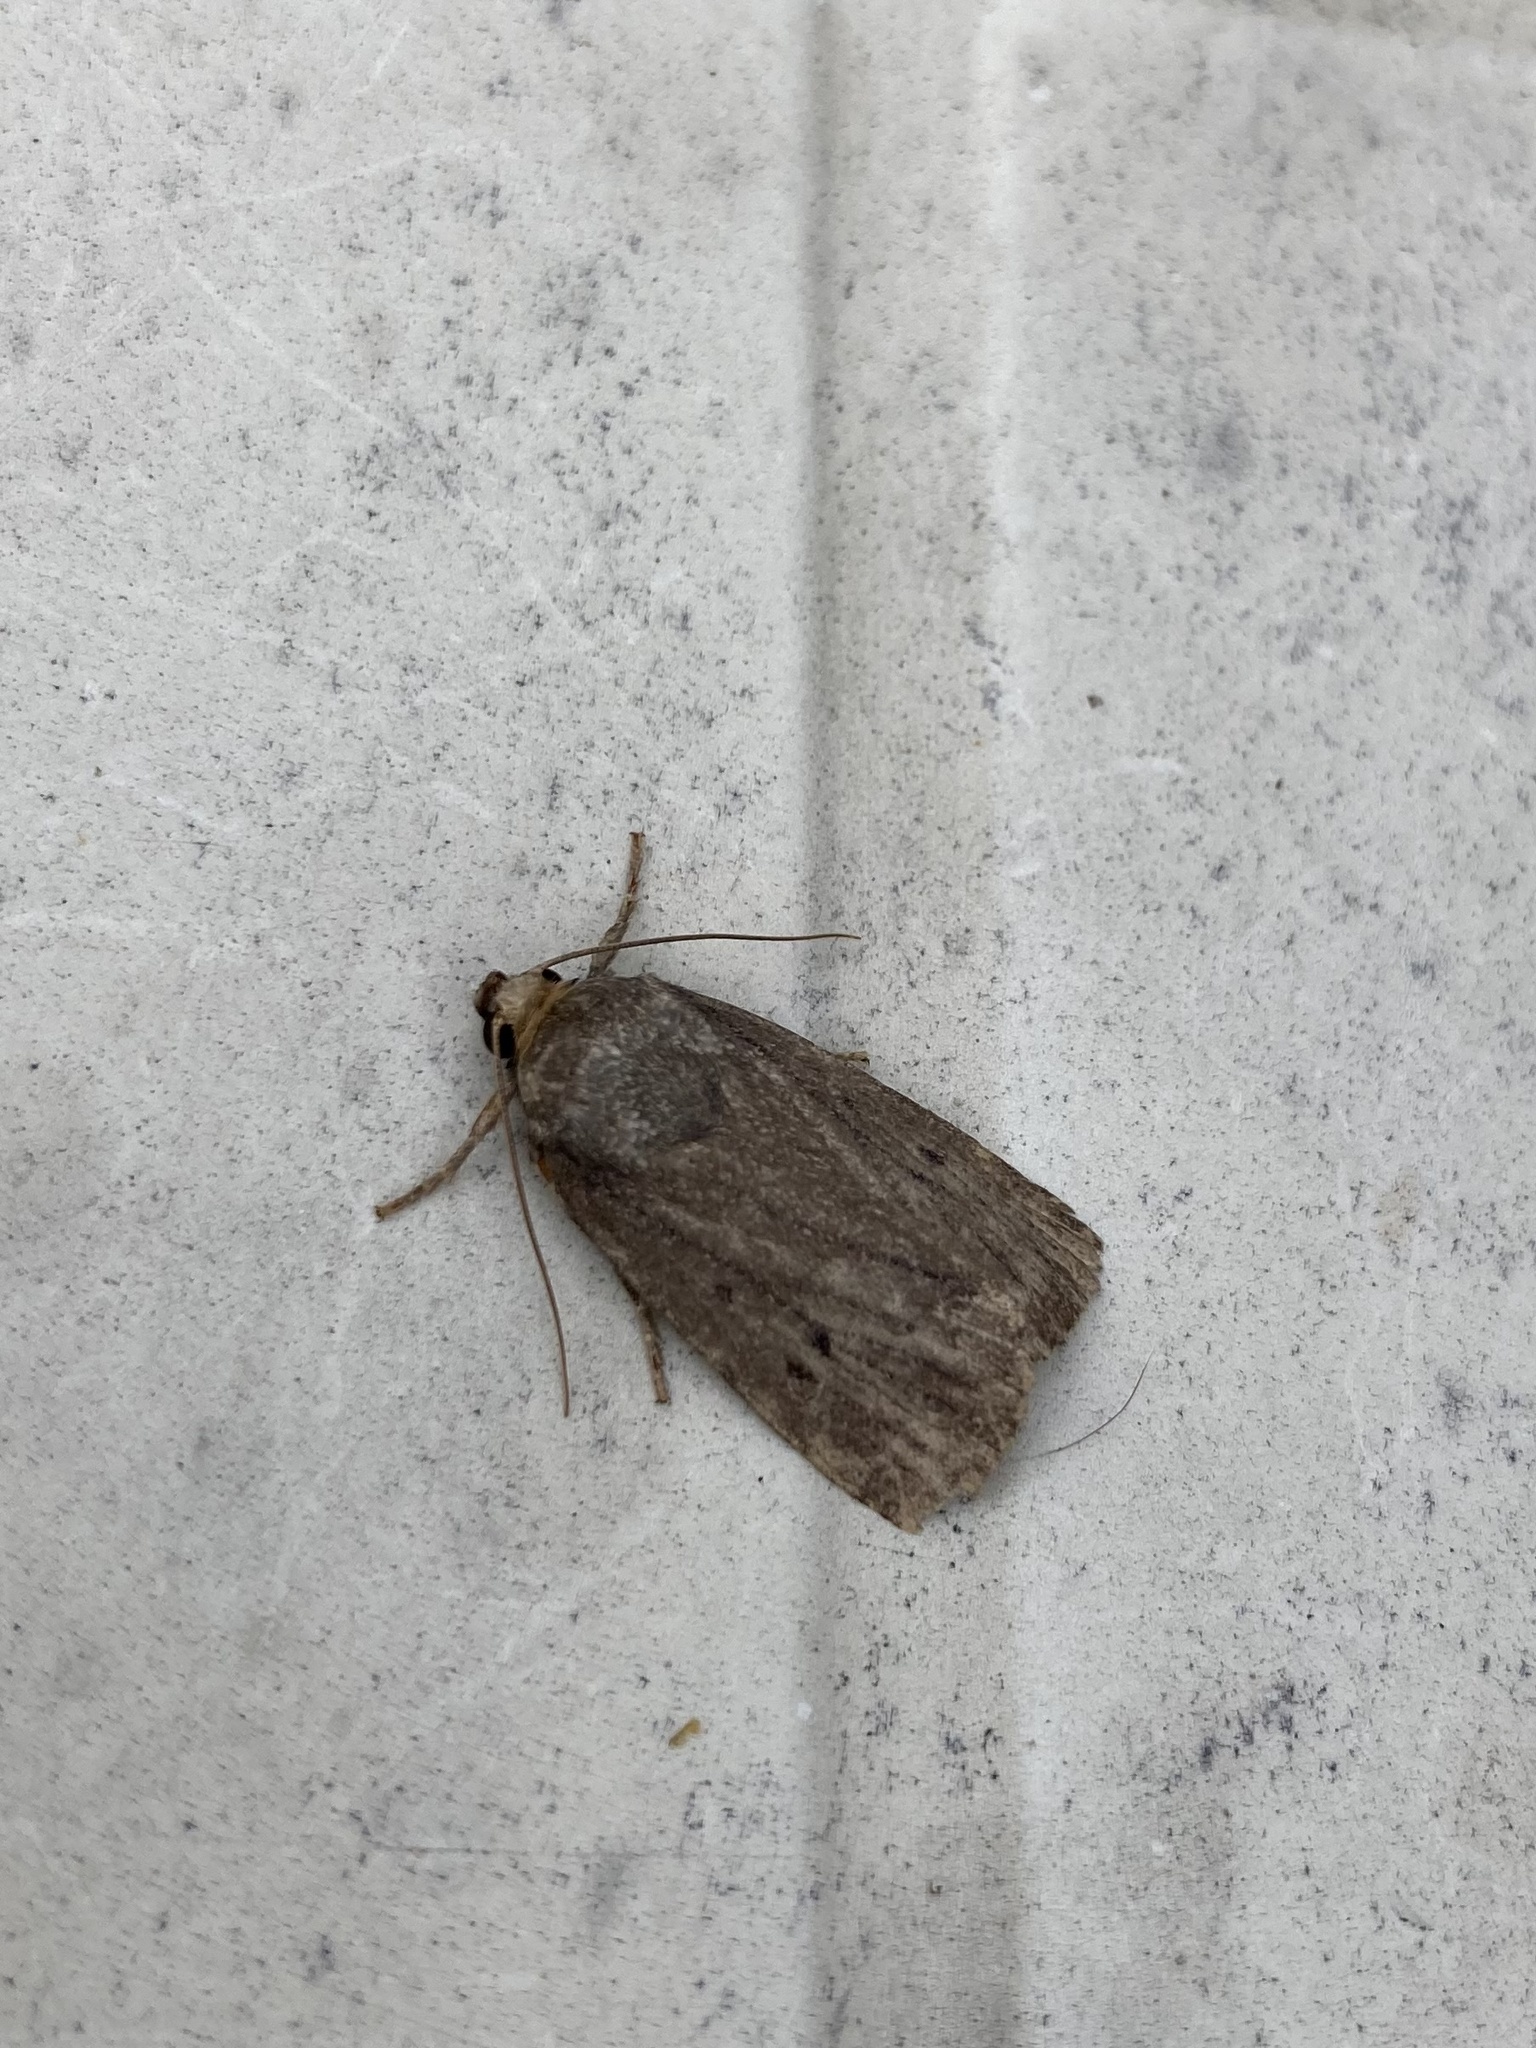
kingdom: Animalia
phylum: Arthropoda
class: Insecta
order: Lepidoptera
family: Noctuidae
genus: Amphipyra
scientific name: Amphipyra tragopoginis
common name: Mouse moth
